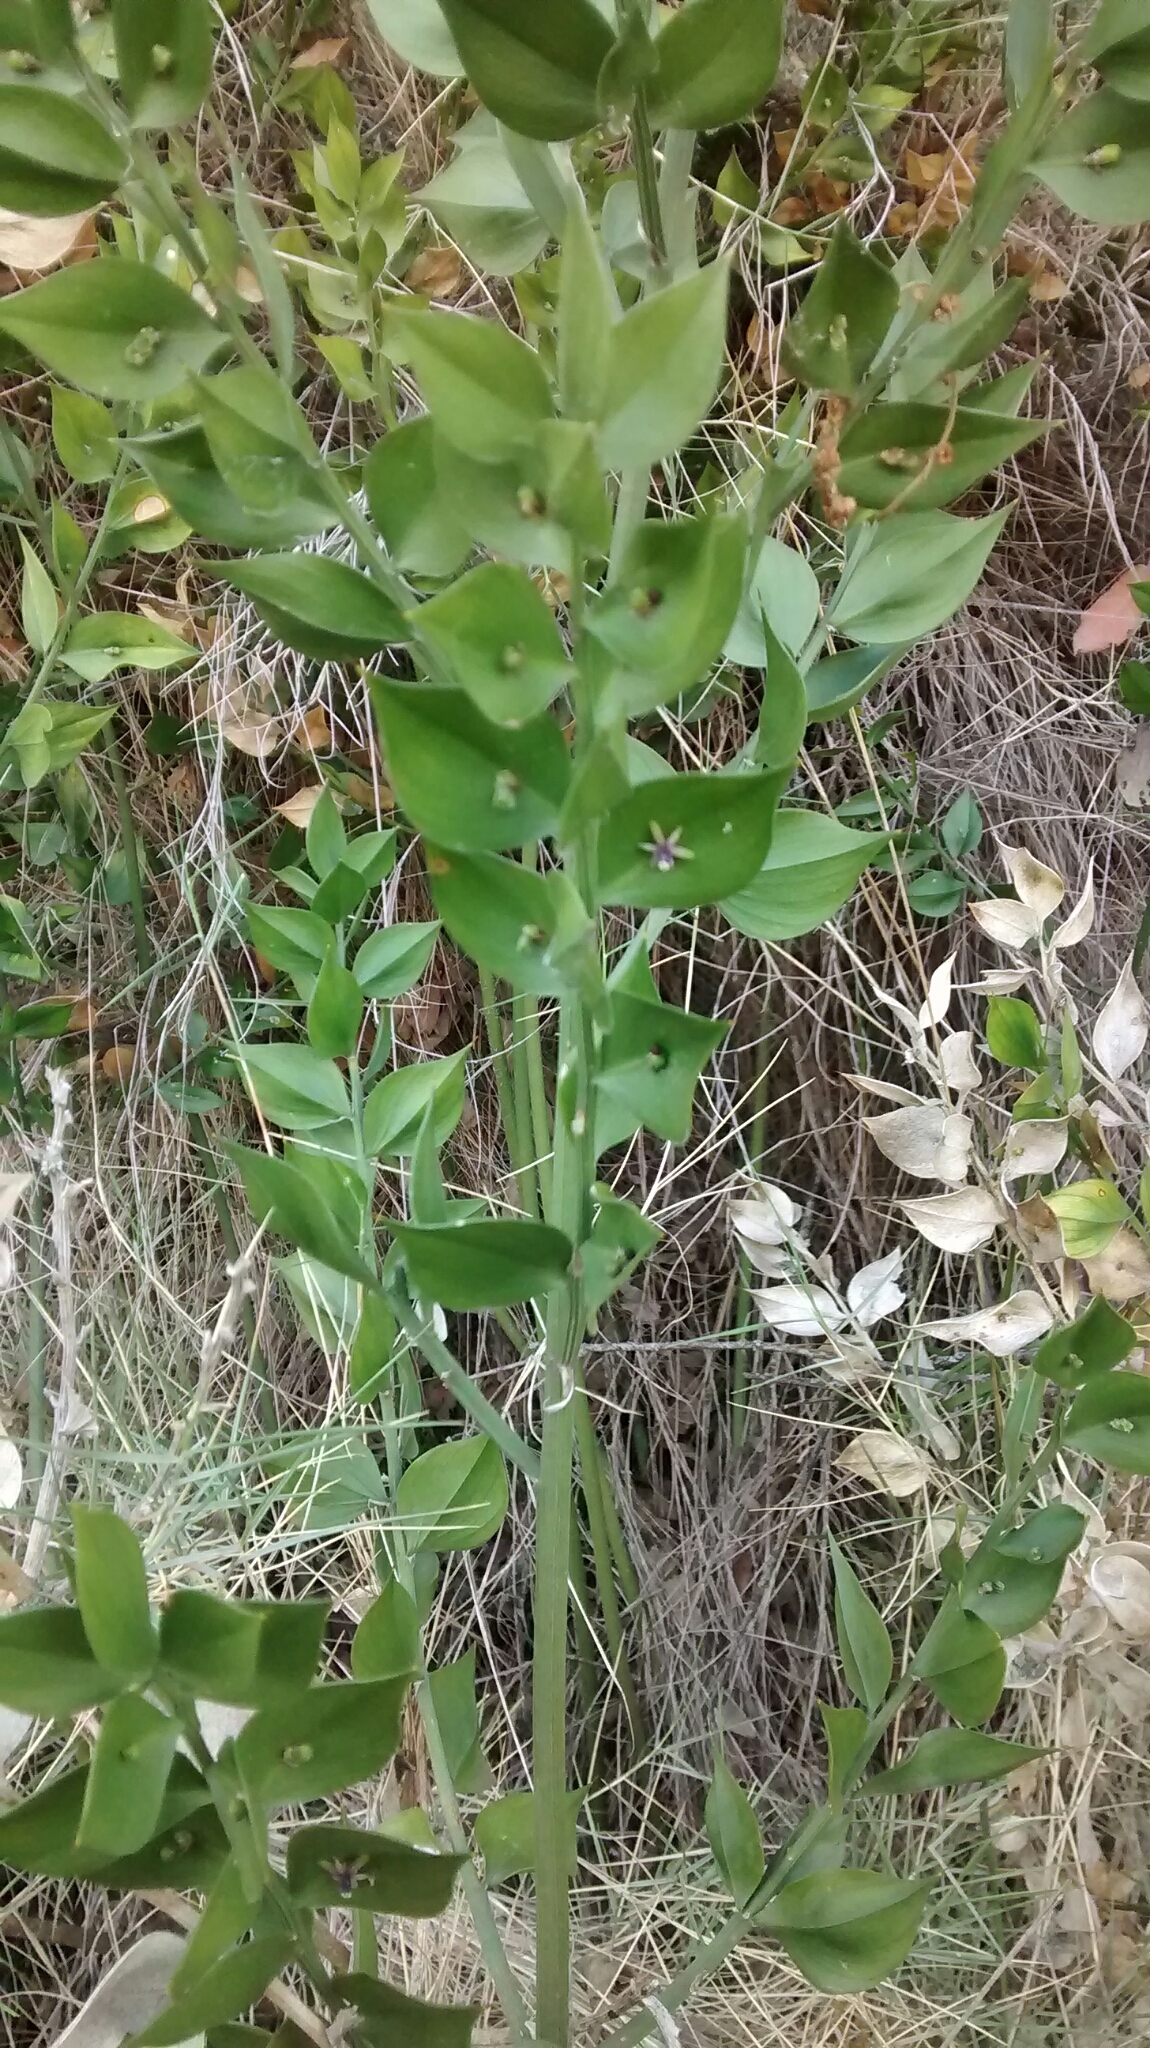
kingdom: Plantae
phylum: Tracheophyta
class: Liliopsida
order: Asparagales
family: Asparagaceae
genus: Ruscus
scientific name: Ruscus aculeatus
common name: Butcher's-broom
